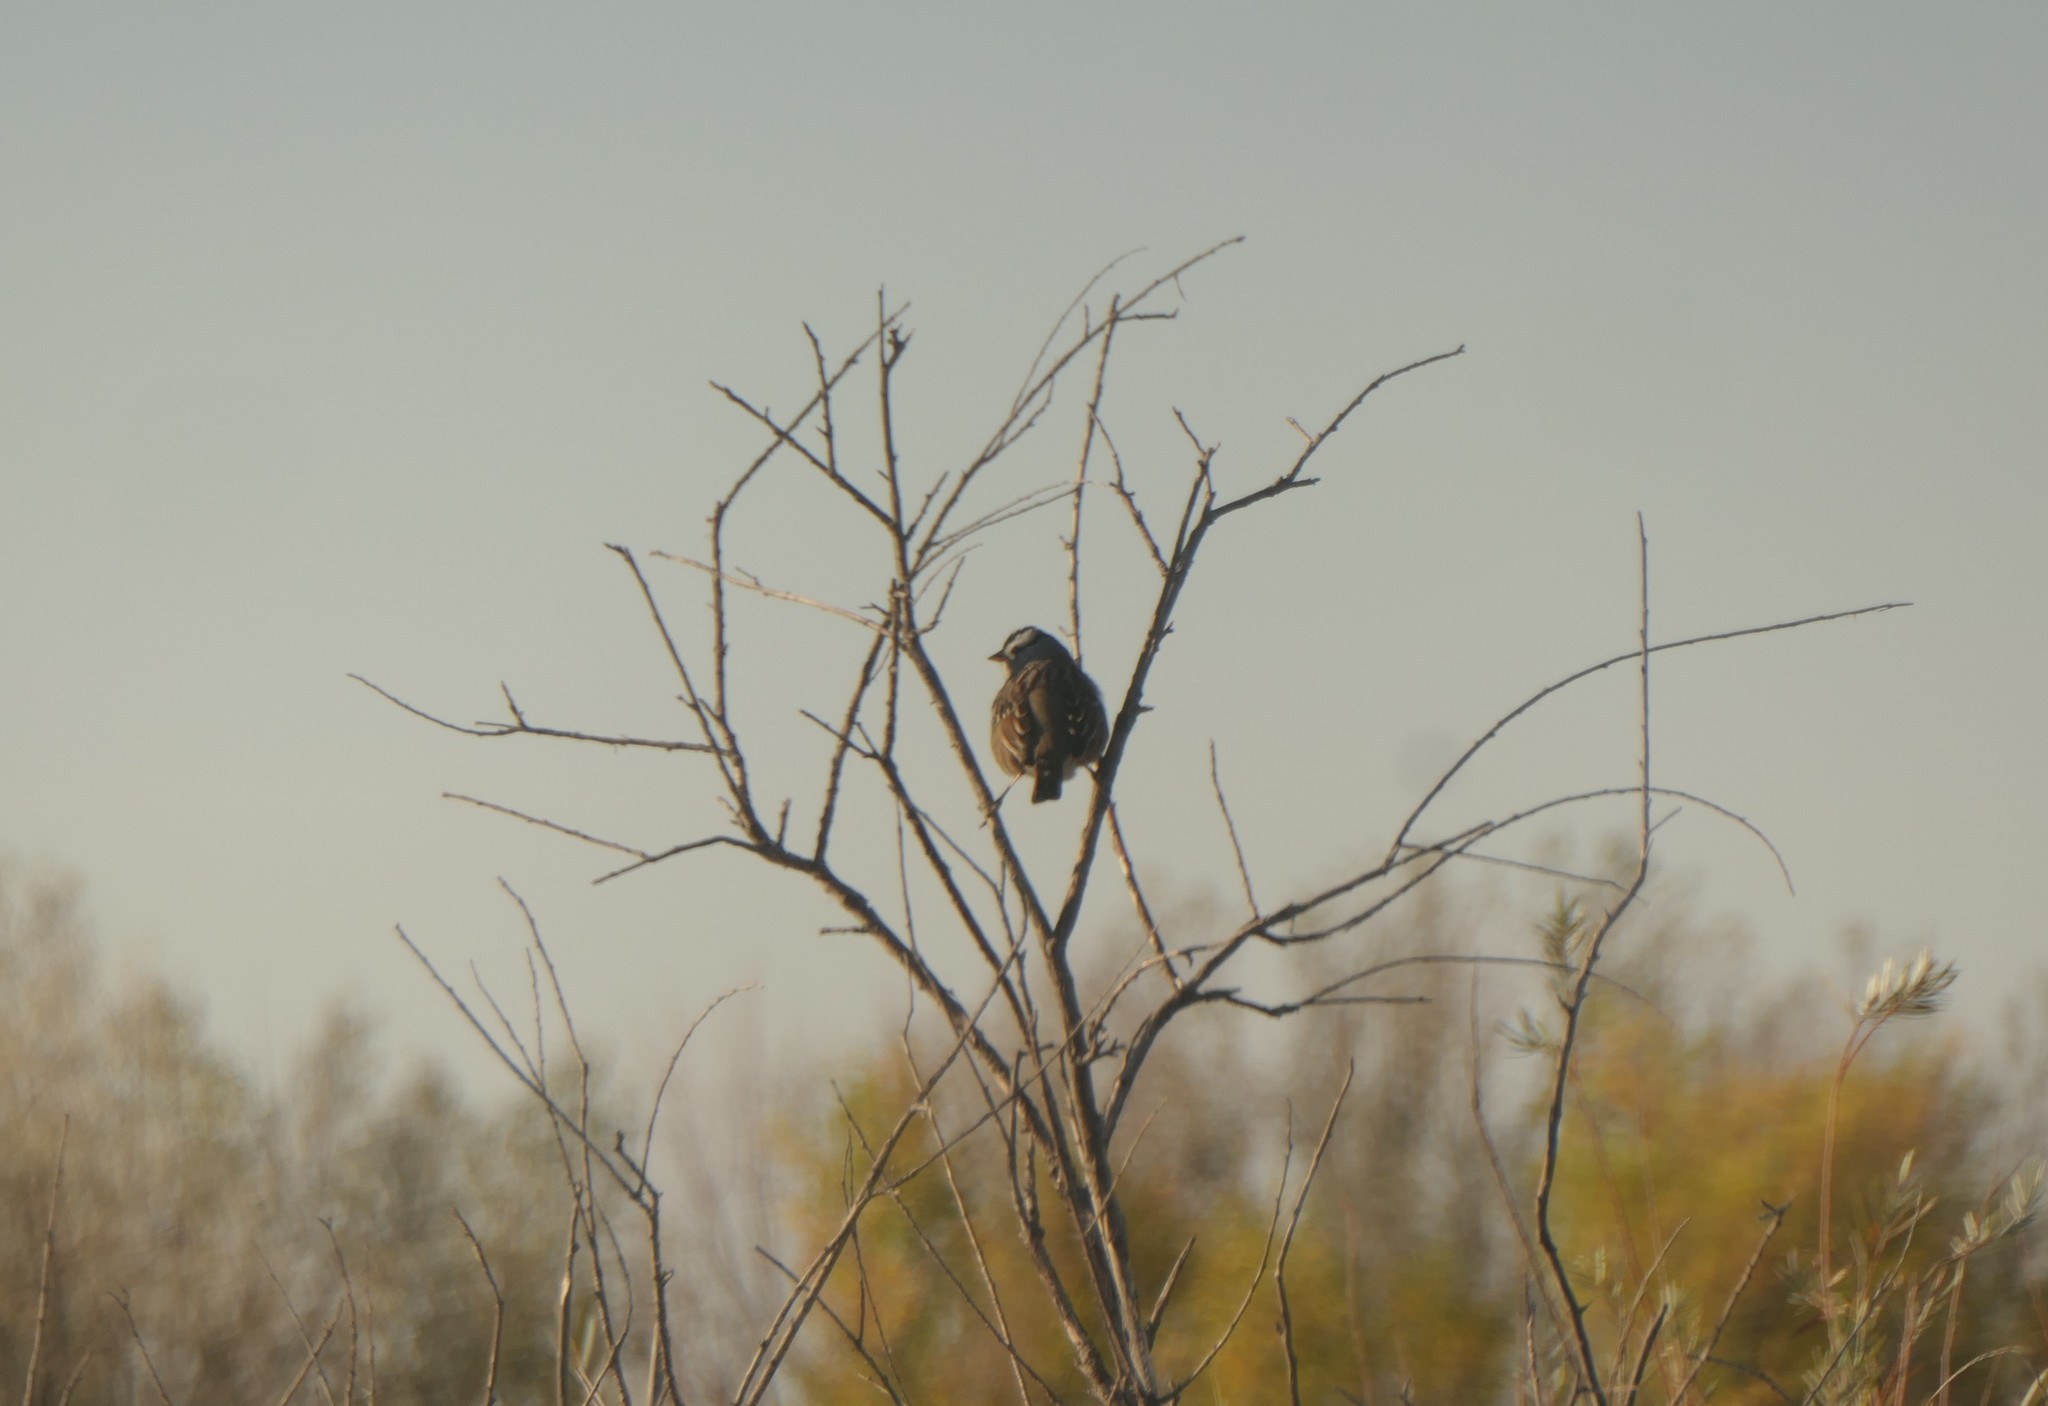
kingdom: Animalia
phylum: Chordata
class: Aves
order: Passeriformes
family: Passerellidae
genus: Zonotrichia
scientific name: Zonotrichia leucophrys
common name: White-crowned sparrow
